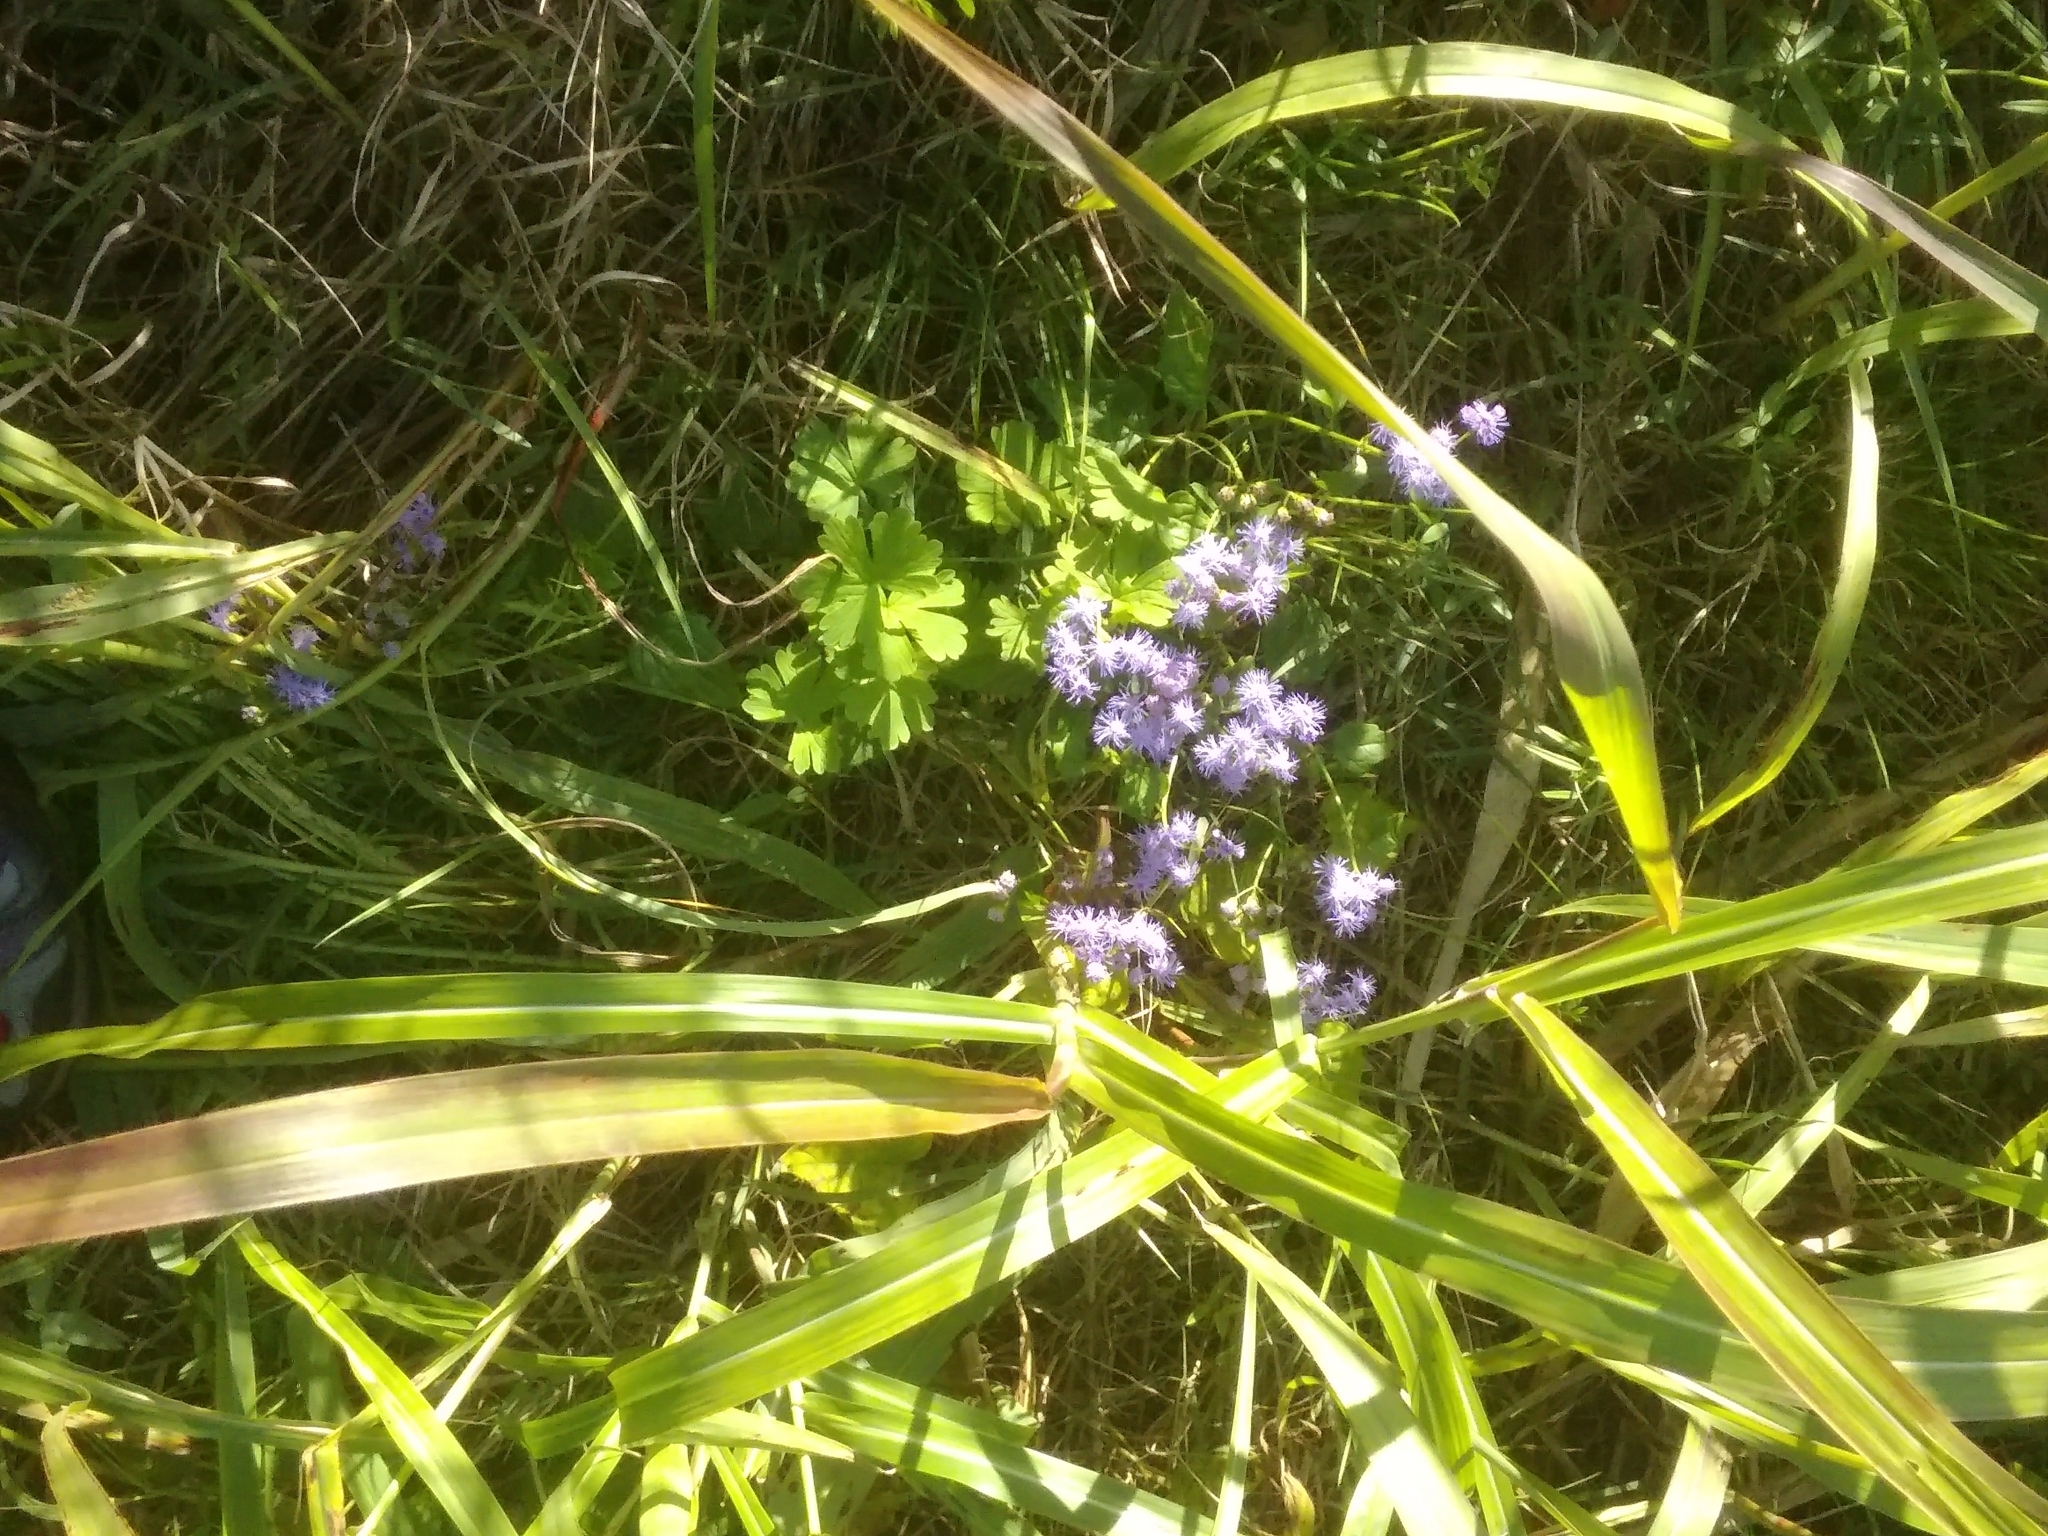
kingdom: Plantae
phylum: Tracheophyta
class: Magnoliopsida
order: Asterales
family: Asteraceae
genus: Conoclinium
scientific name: Conoclinium coelestinum
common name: Blue mistflower
